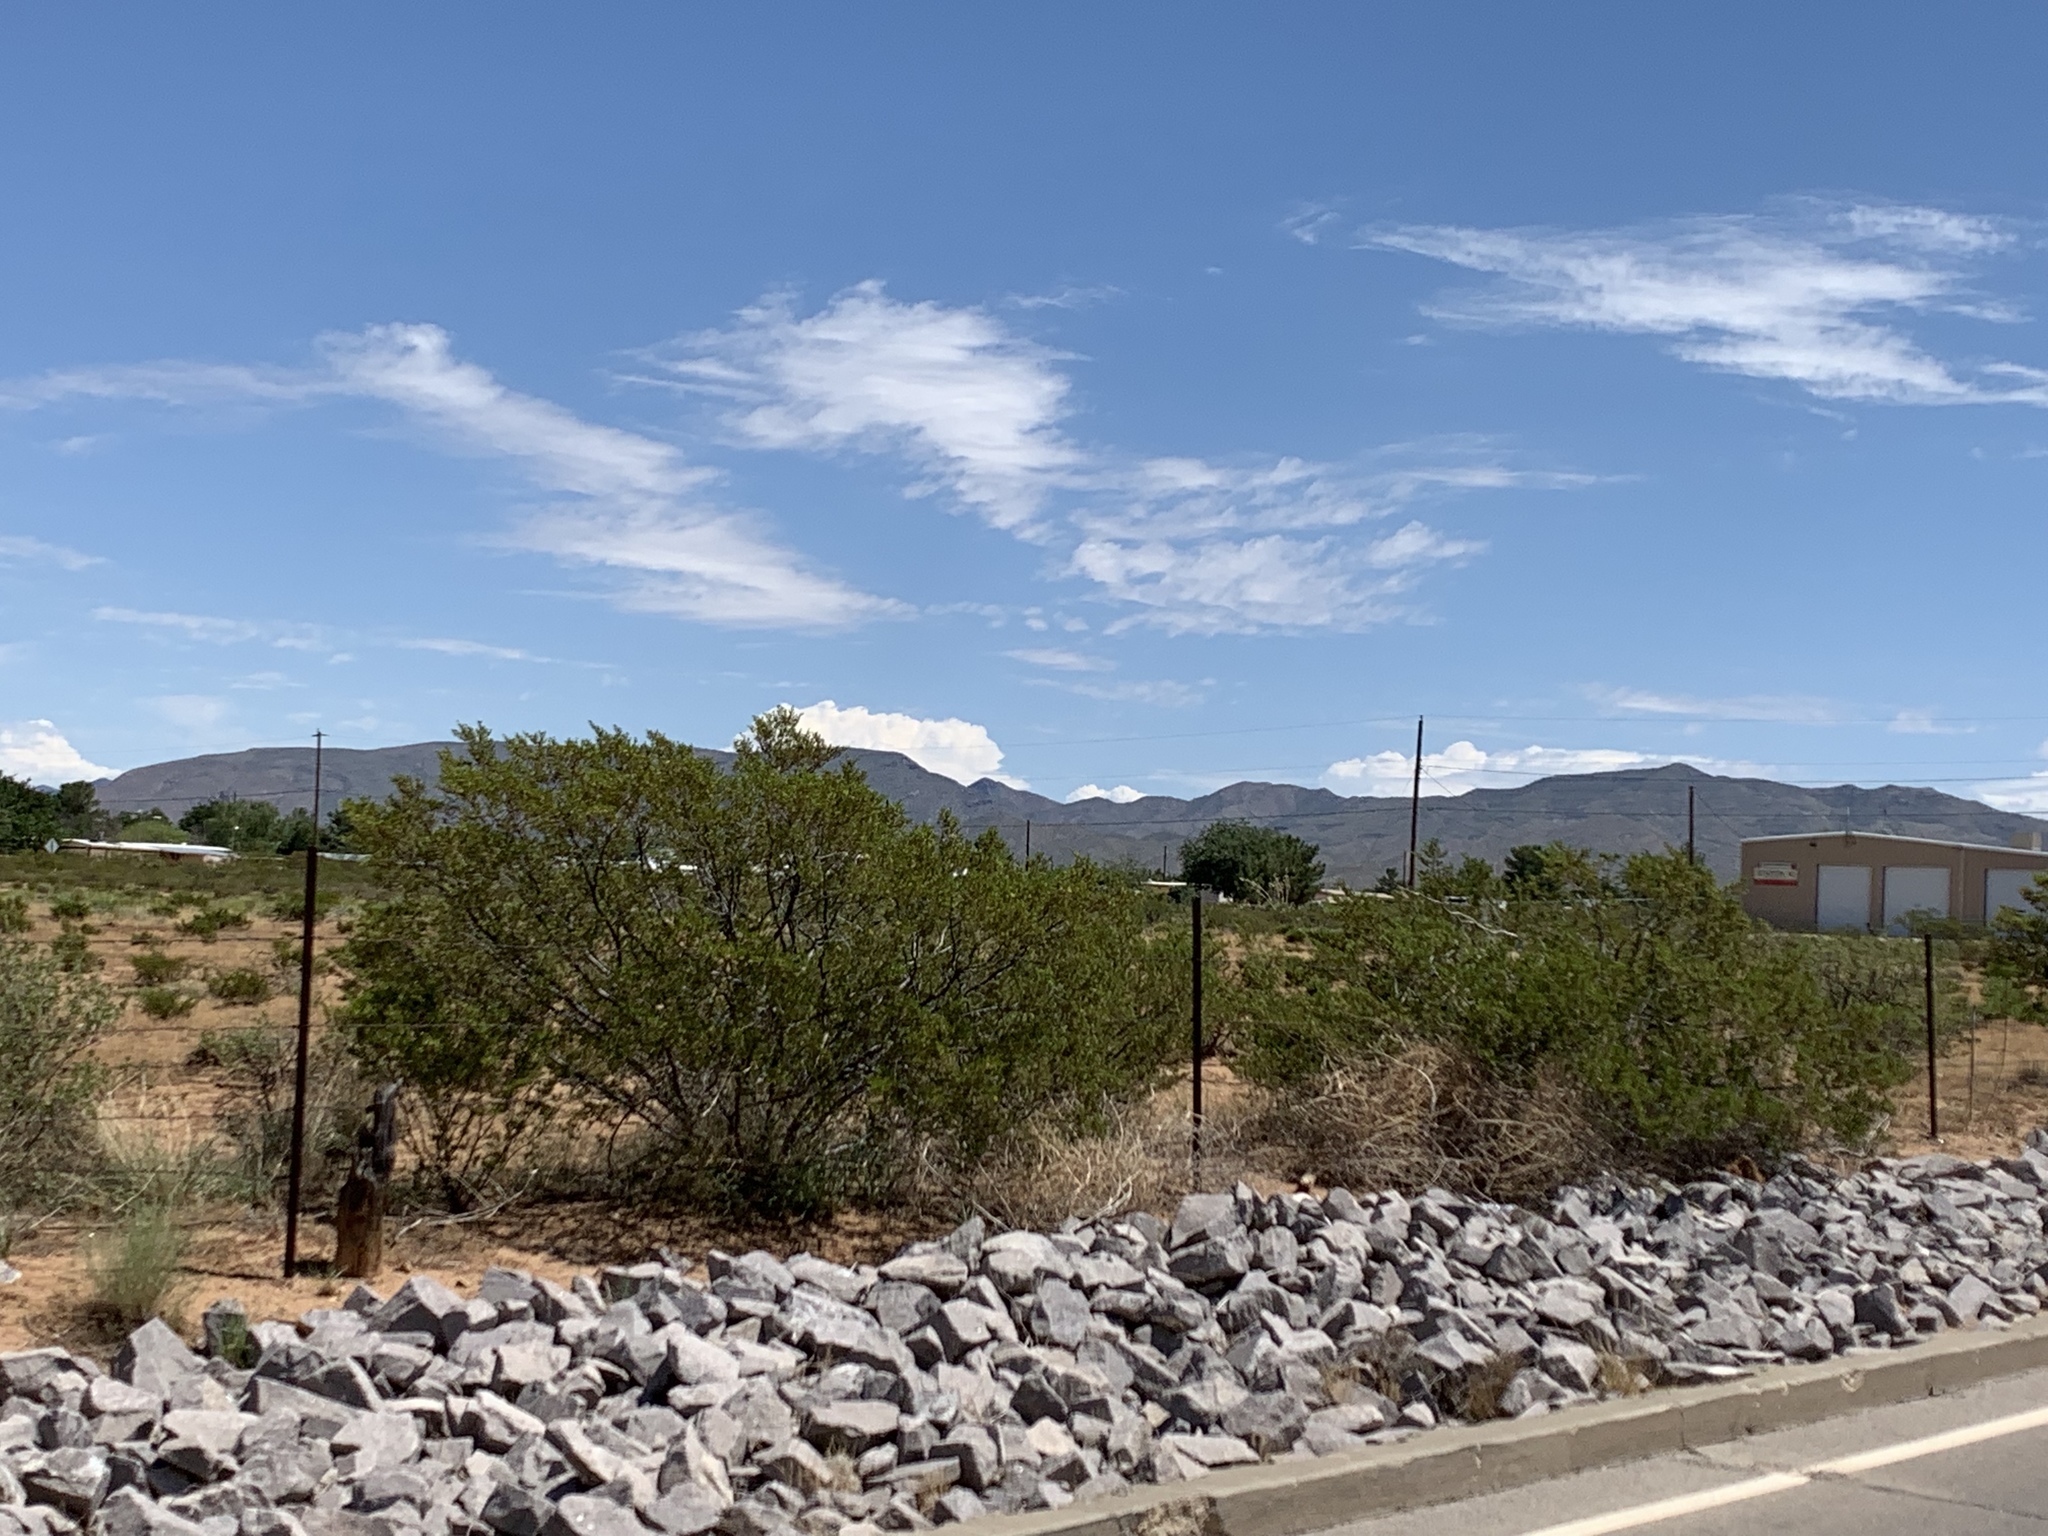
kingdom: Plantae
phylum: Tracheophyta
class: Magnoliopsida
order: Zygophyllales
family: Zygophyllaceae
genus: Larrea
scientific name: Larrea tridentata
